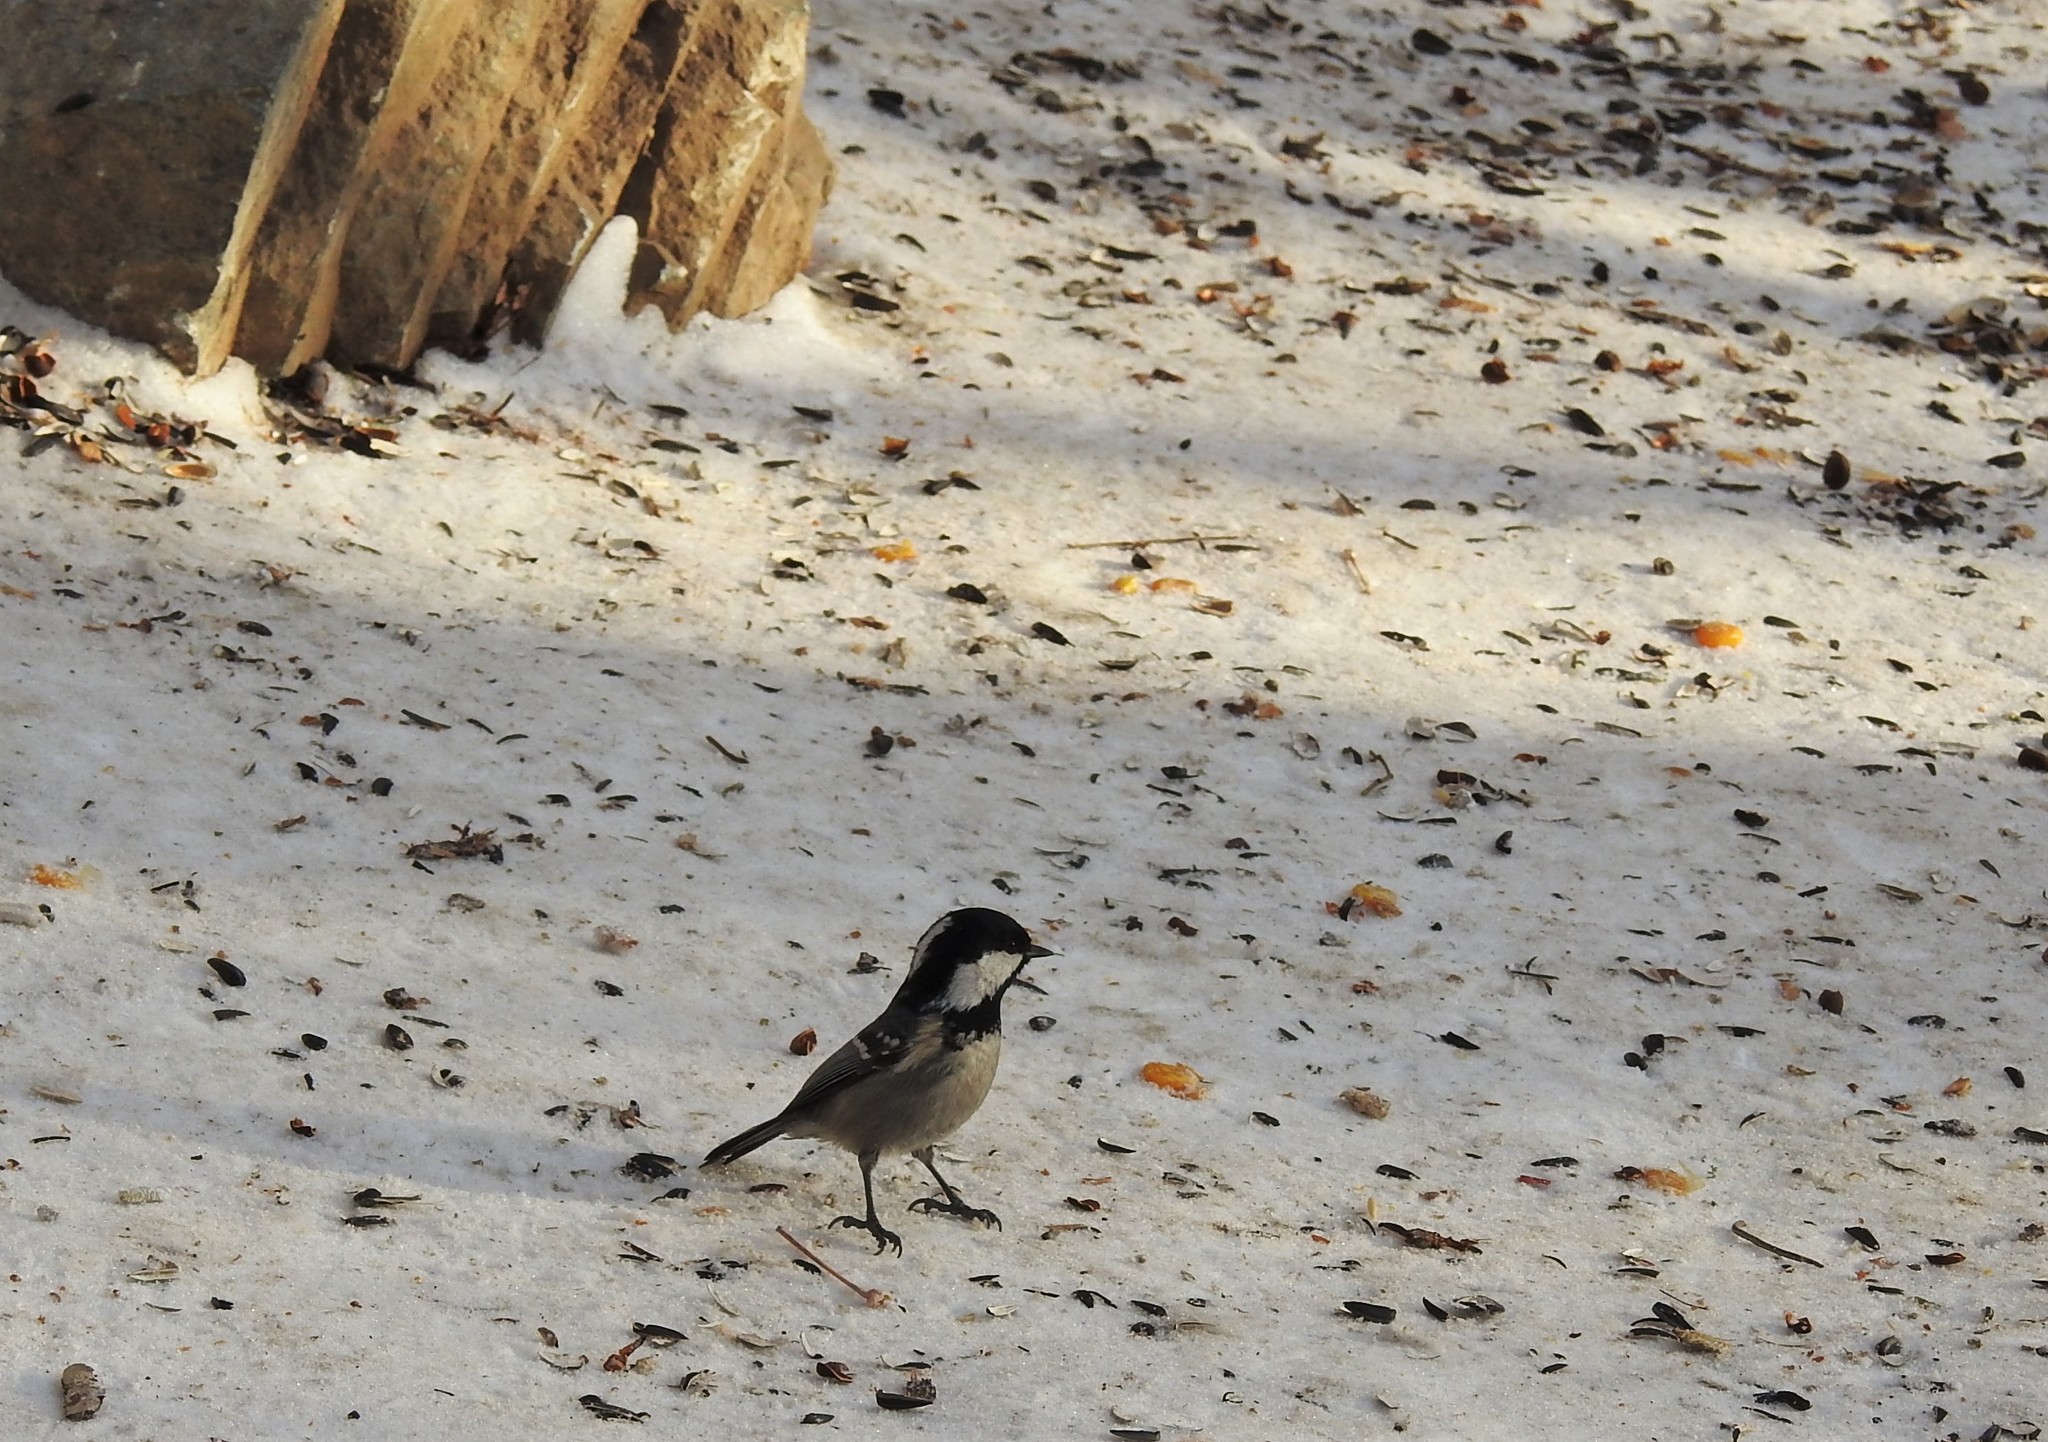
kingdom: Animalia
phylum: Chordata
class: Aves
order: Passeriformes
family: Paridae
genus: Periparus
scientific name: Periparus ater
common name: Coal tit
